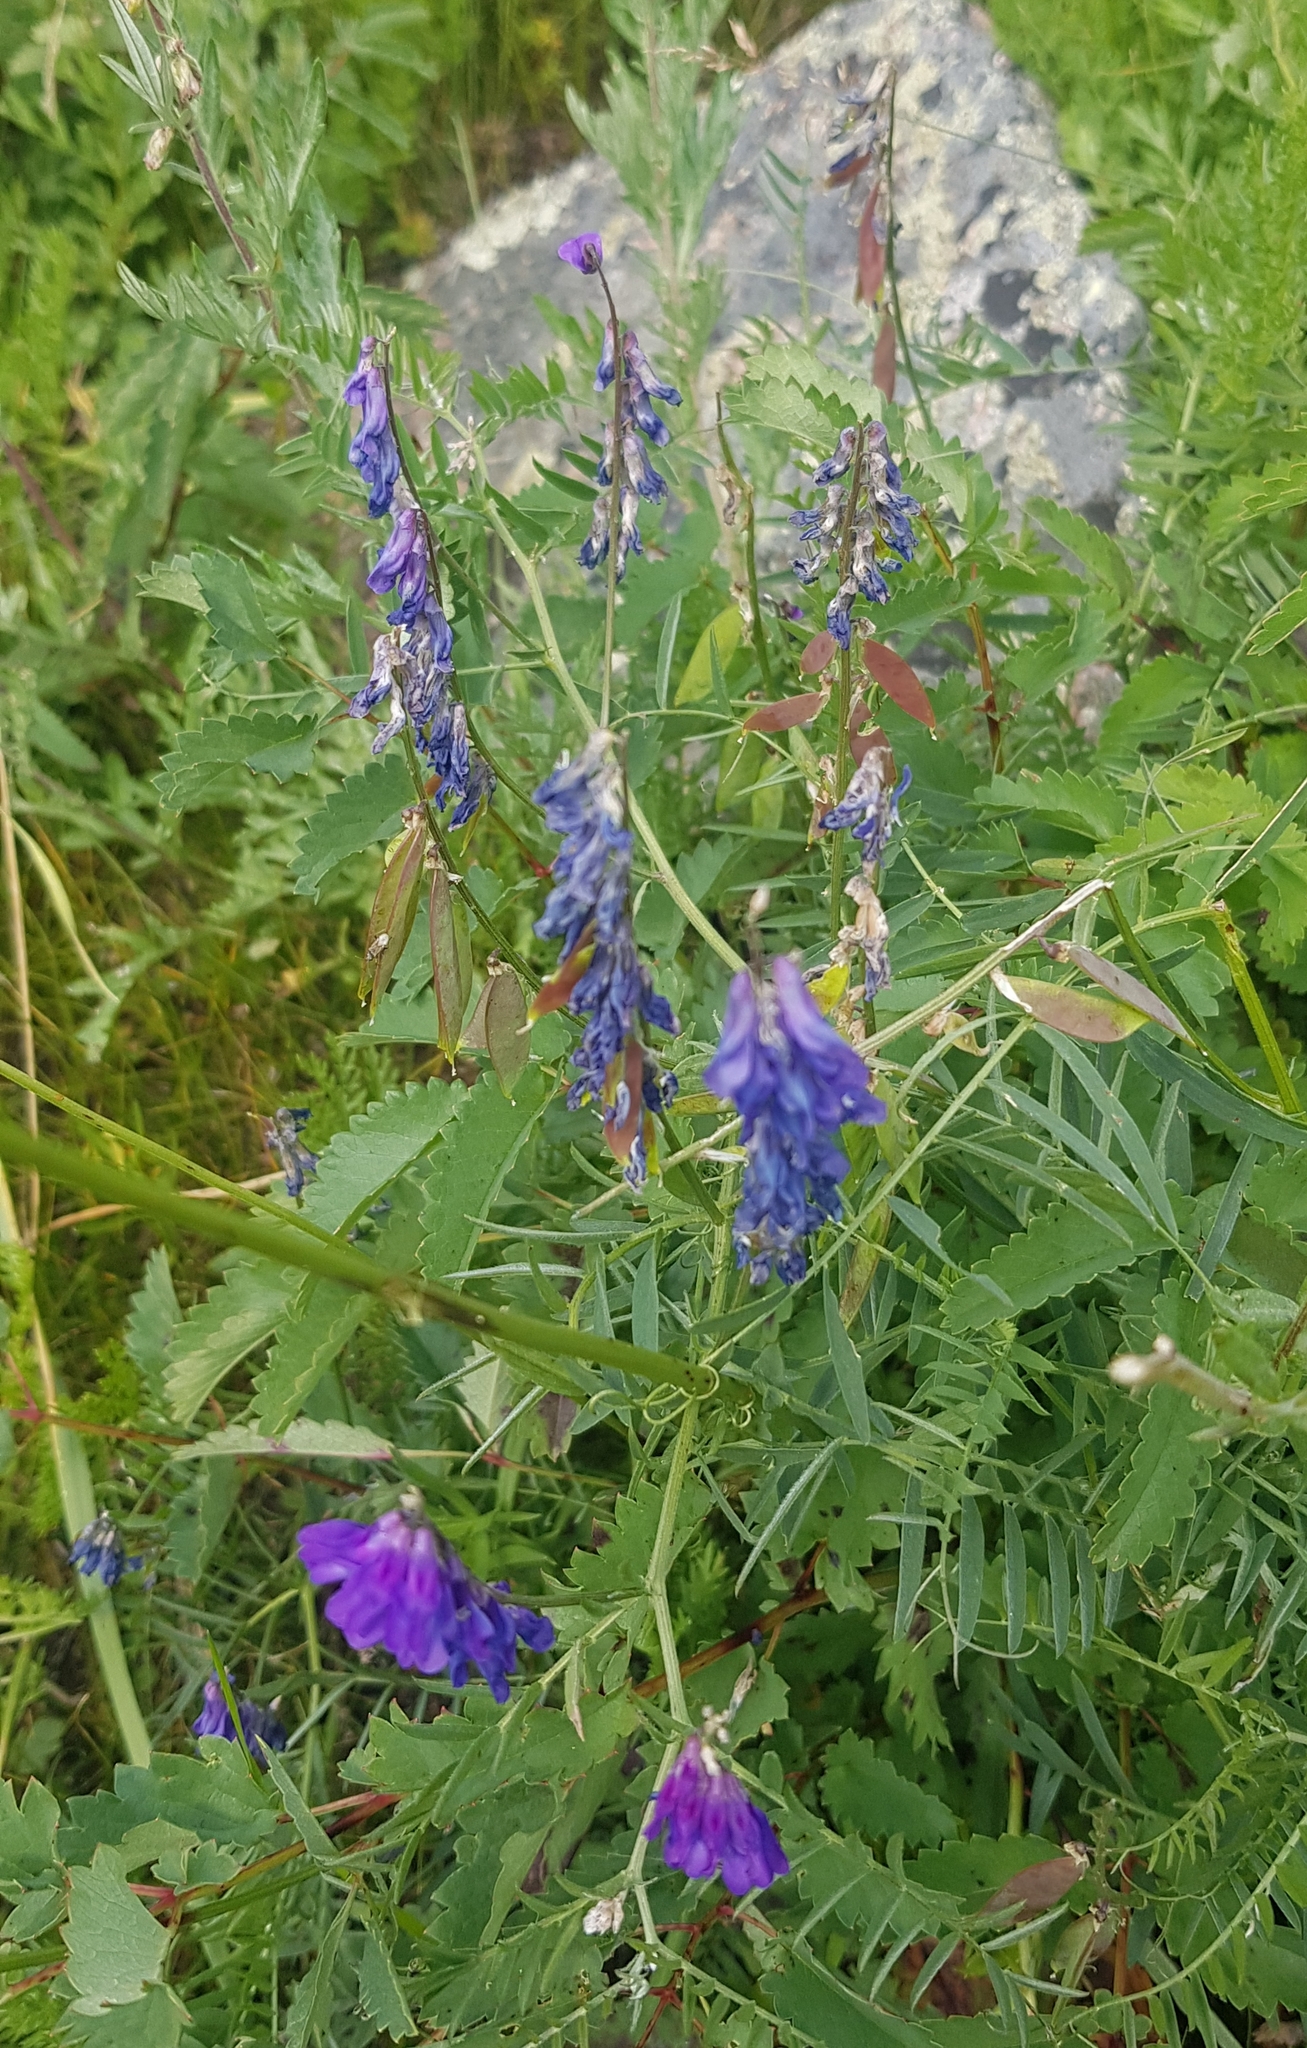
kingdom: Plantae
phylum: Tracheophyta
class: Magnoliopsida
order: Fabales
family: Fabaceae
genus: Vicia
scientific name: Vicia cracca
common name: Bird vetch
